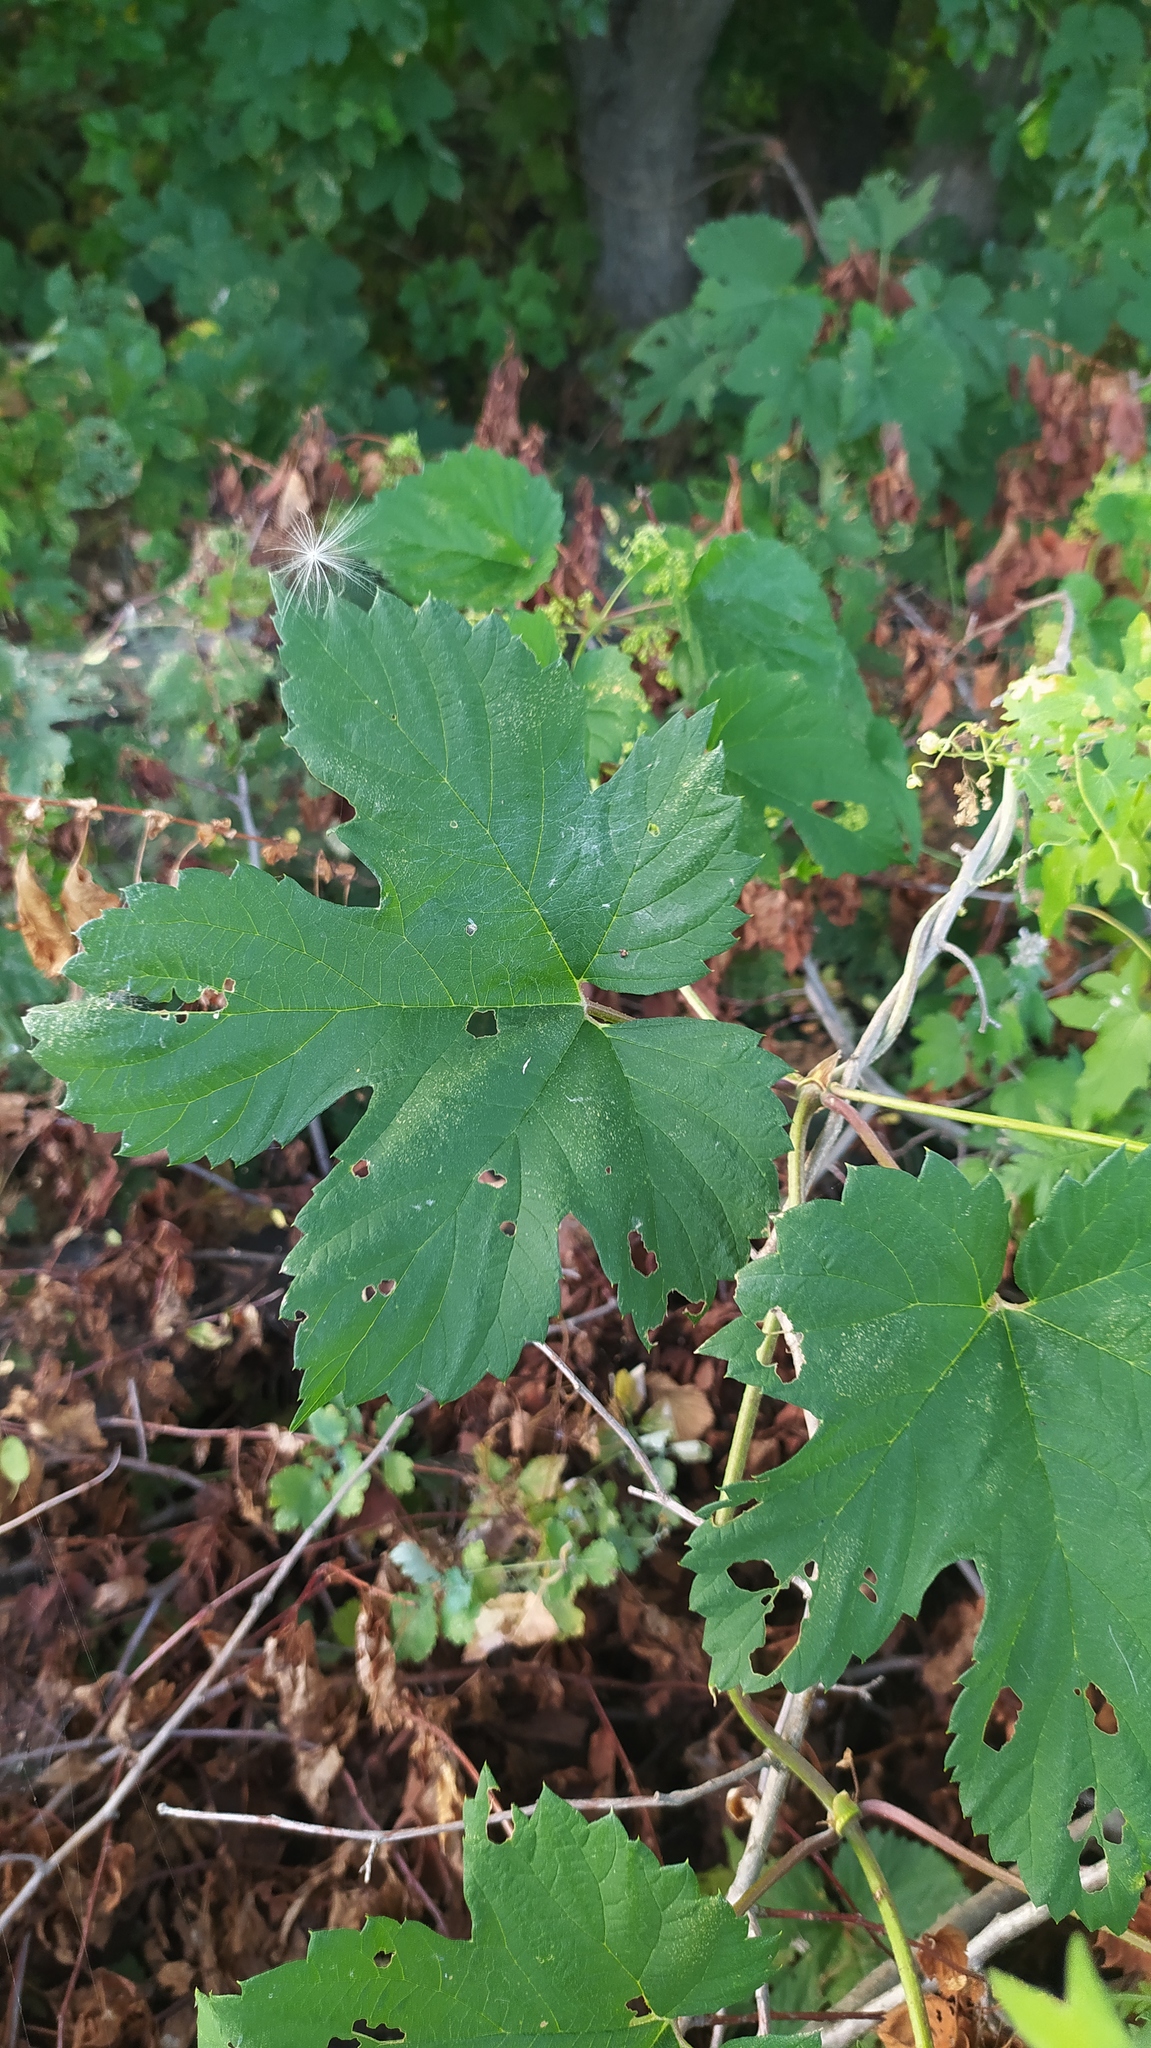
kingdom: Plantae
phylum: Tracheophyta
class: Magnoliopsida
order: Rosales
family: Cannabaceae
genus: Humulus
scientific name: Humulus lupulus
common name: Hop
